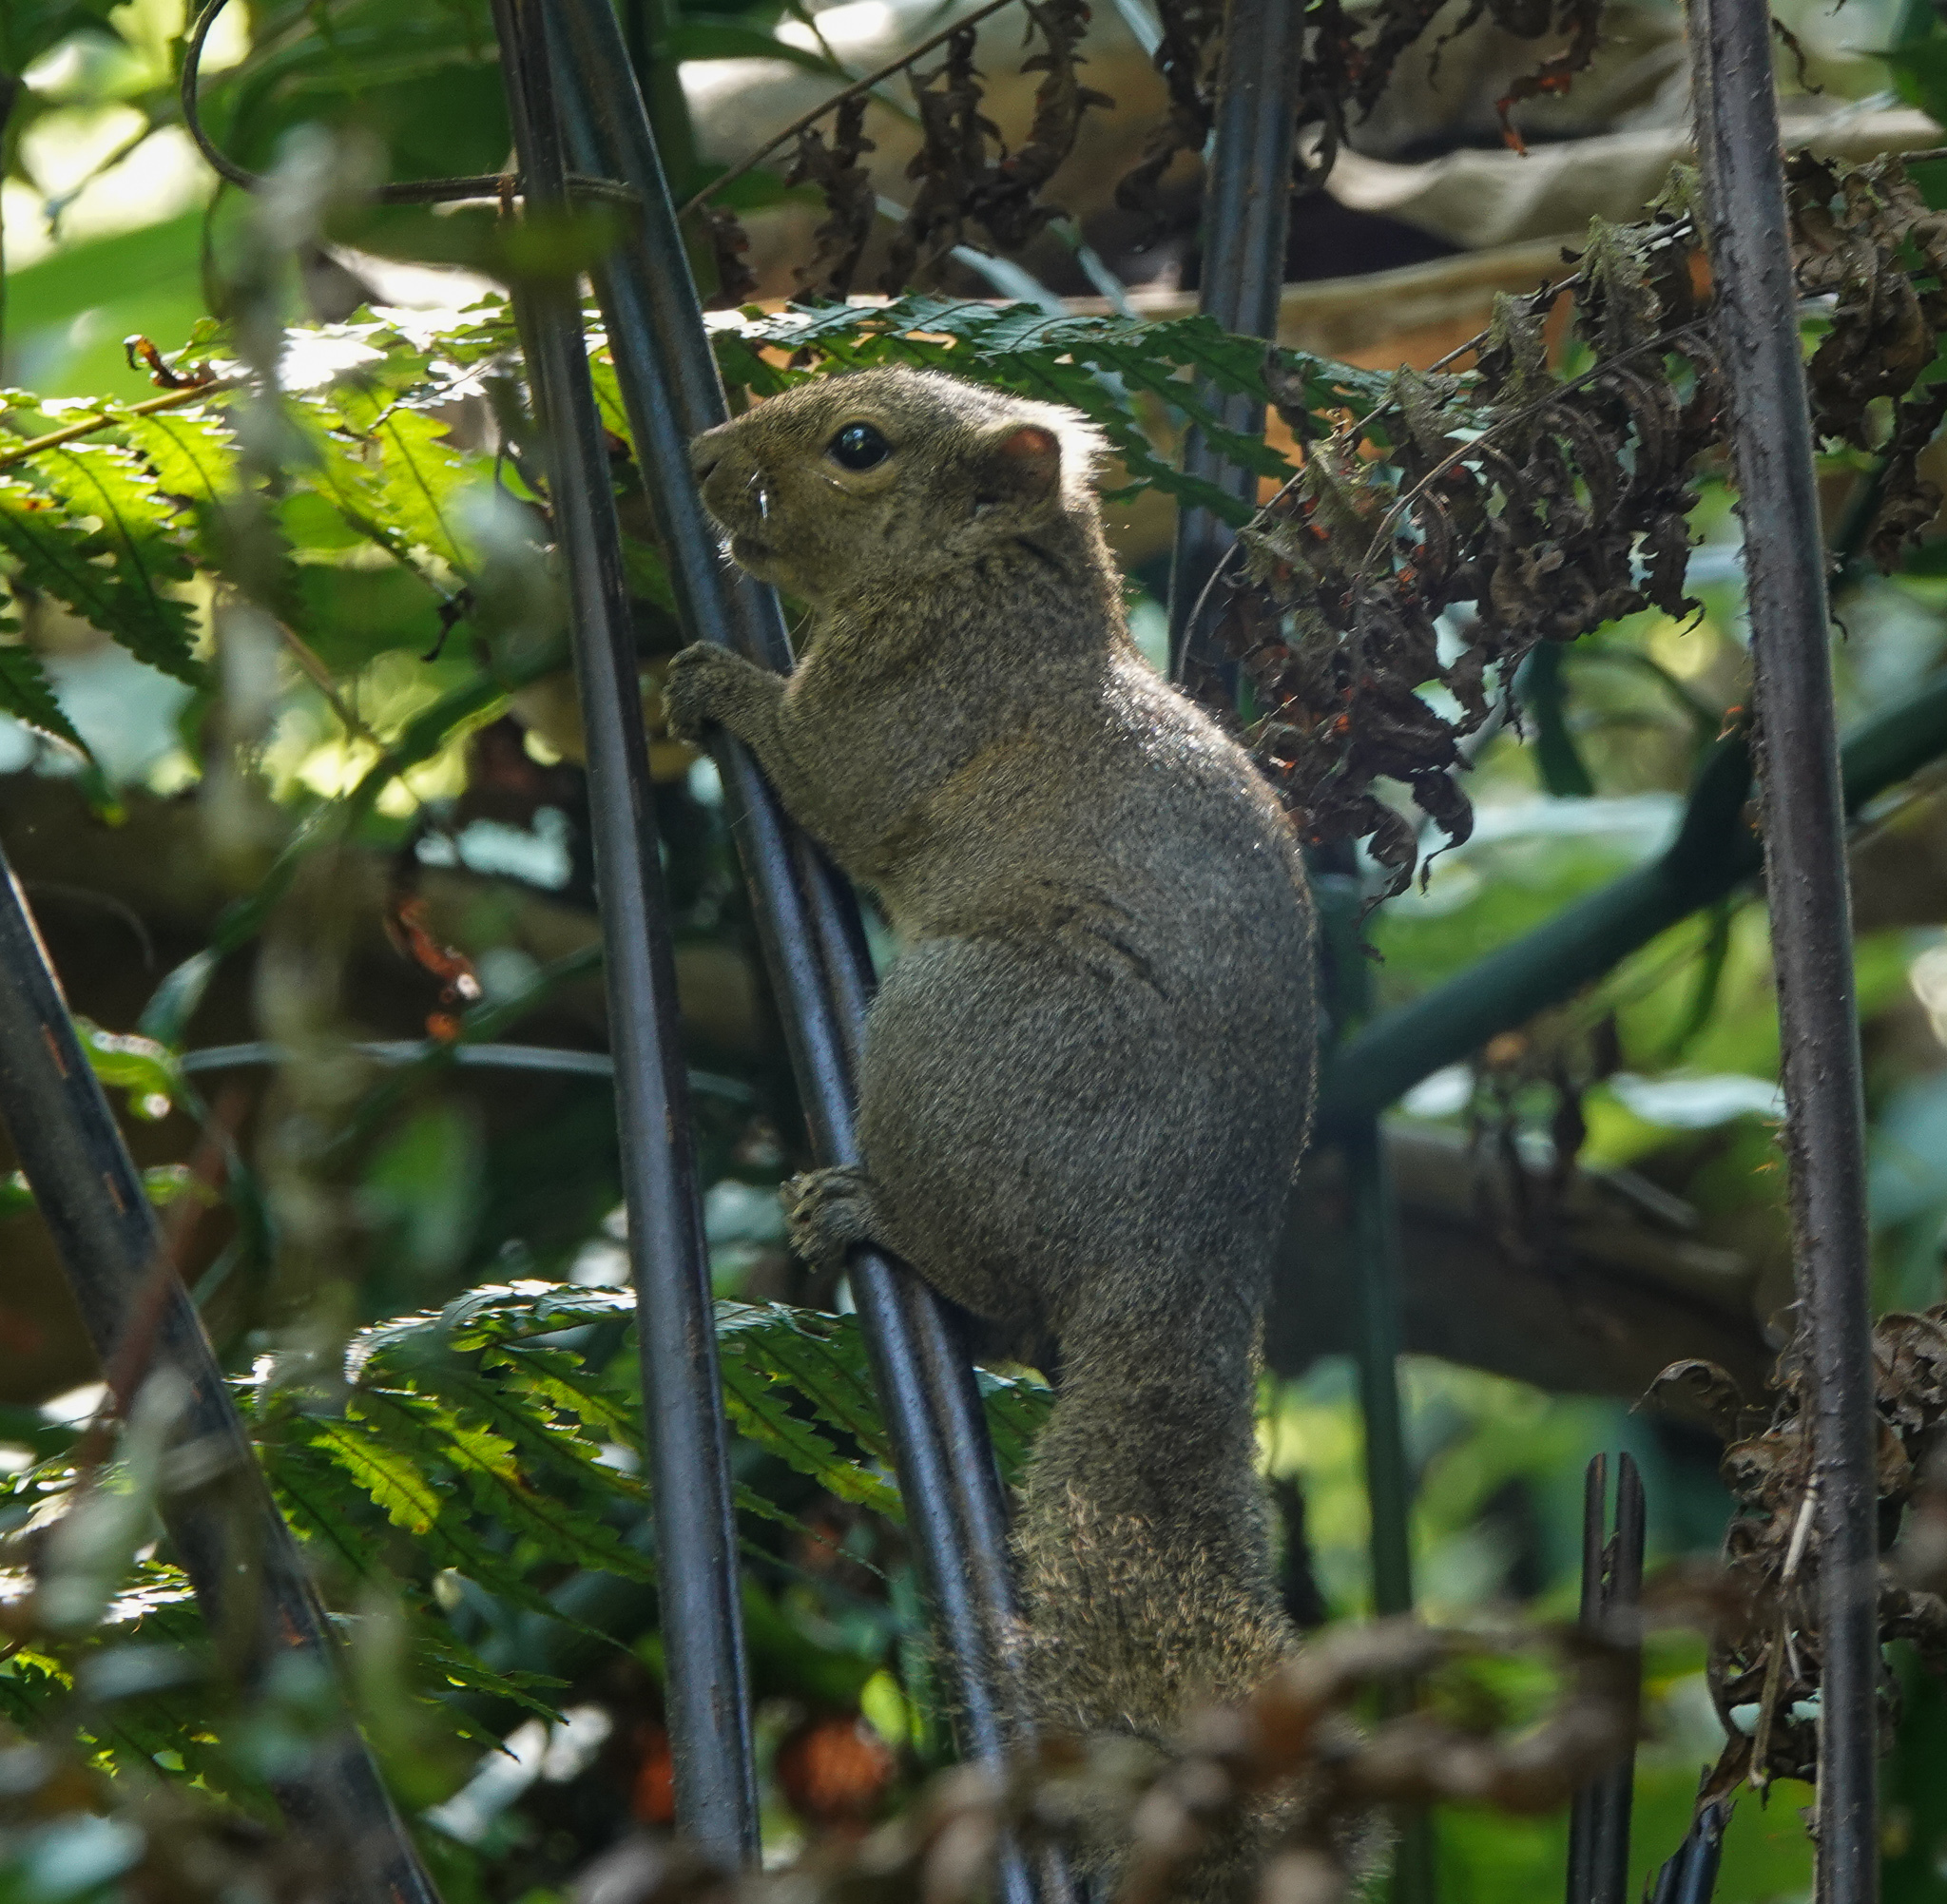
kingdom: Animalia
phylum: Chordata
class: Mammalia
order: Rodentia
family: Sciuridae
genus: Callosciurus
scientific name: Callosciurus pygerythrus
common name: Irrawaddy squirrel
